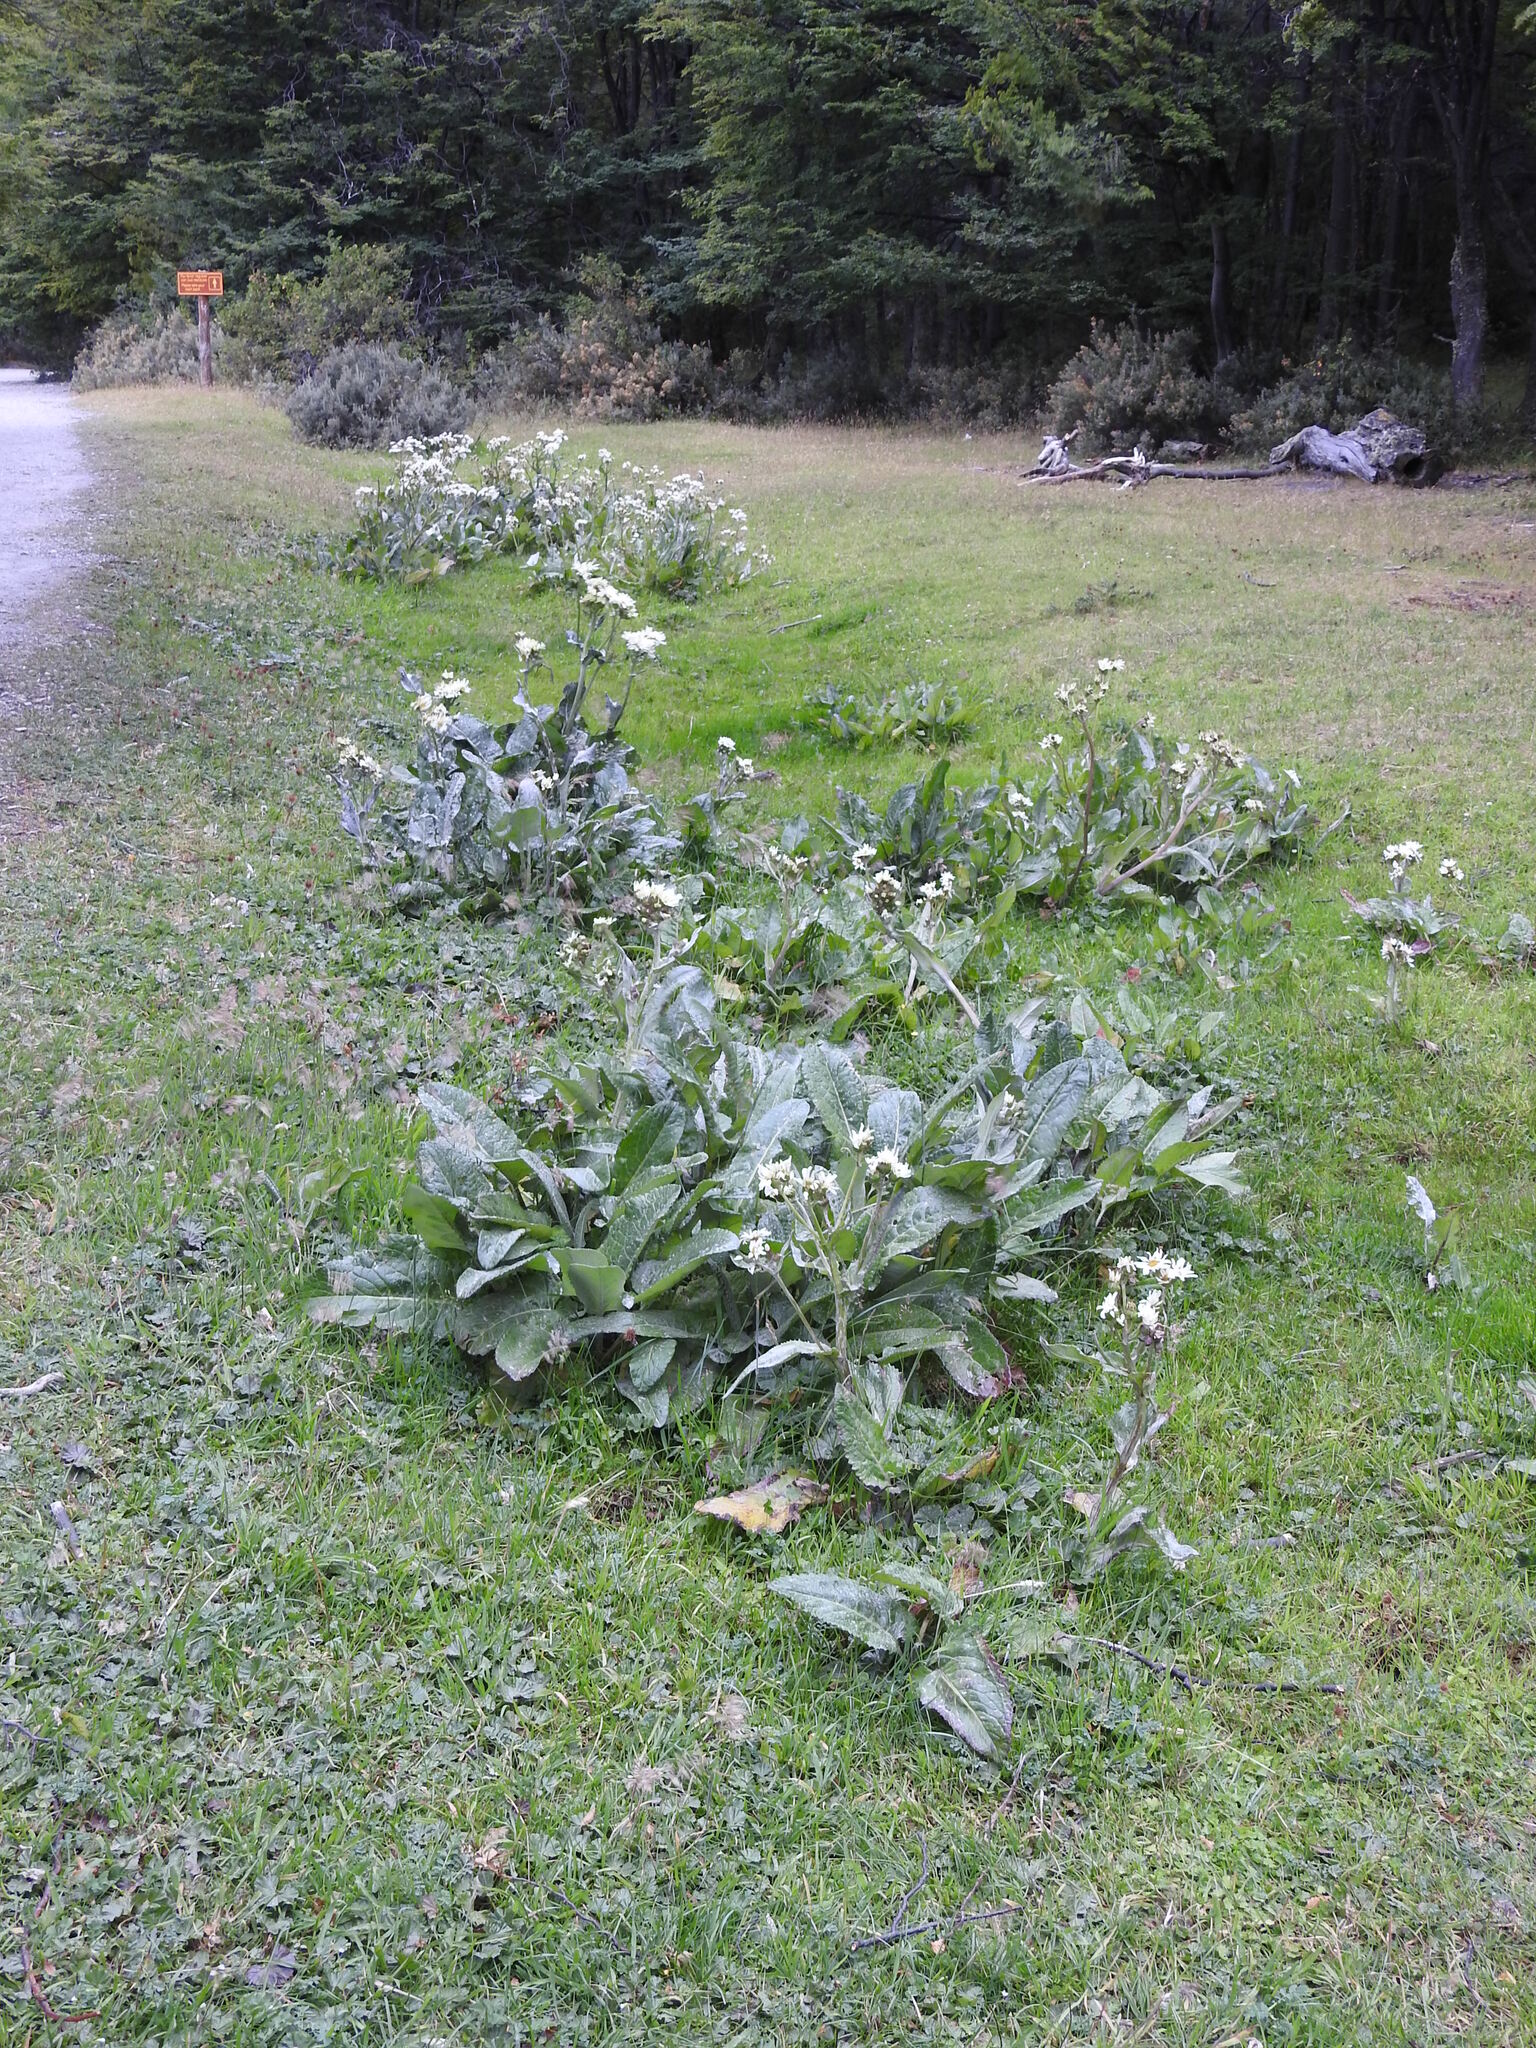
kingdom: Plantae
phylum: Tracheophyta
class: Magnoliopsida
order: Asterales
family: Asteraceae
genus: Senecio
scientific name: Senecio smithii
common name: Magellan ragwort
